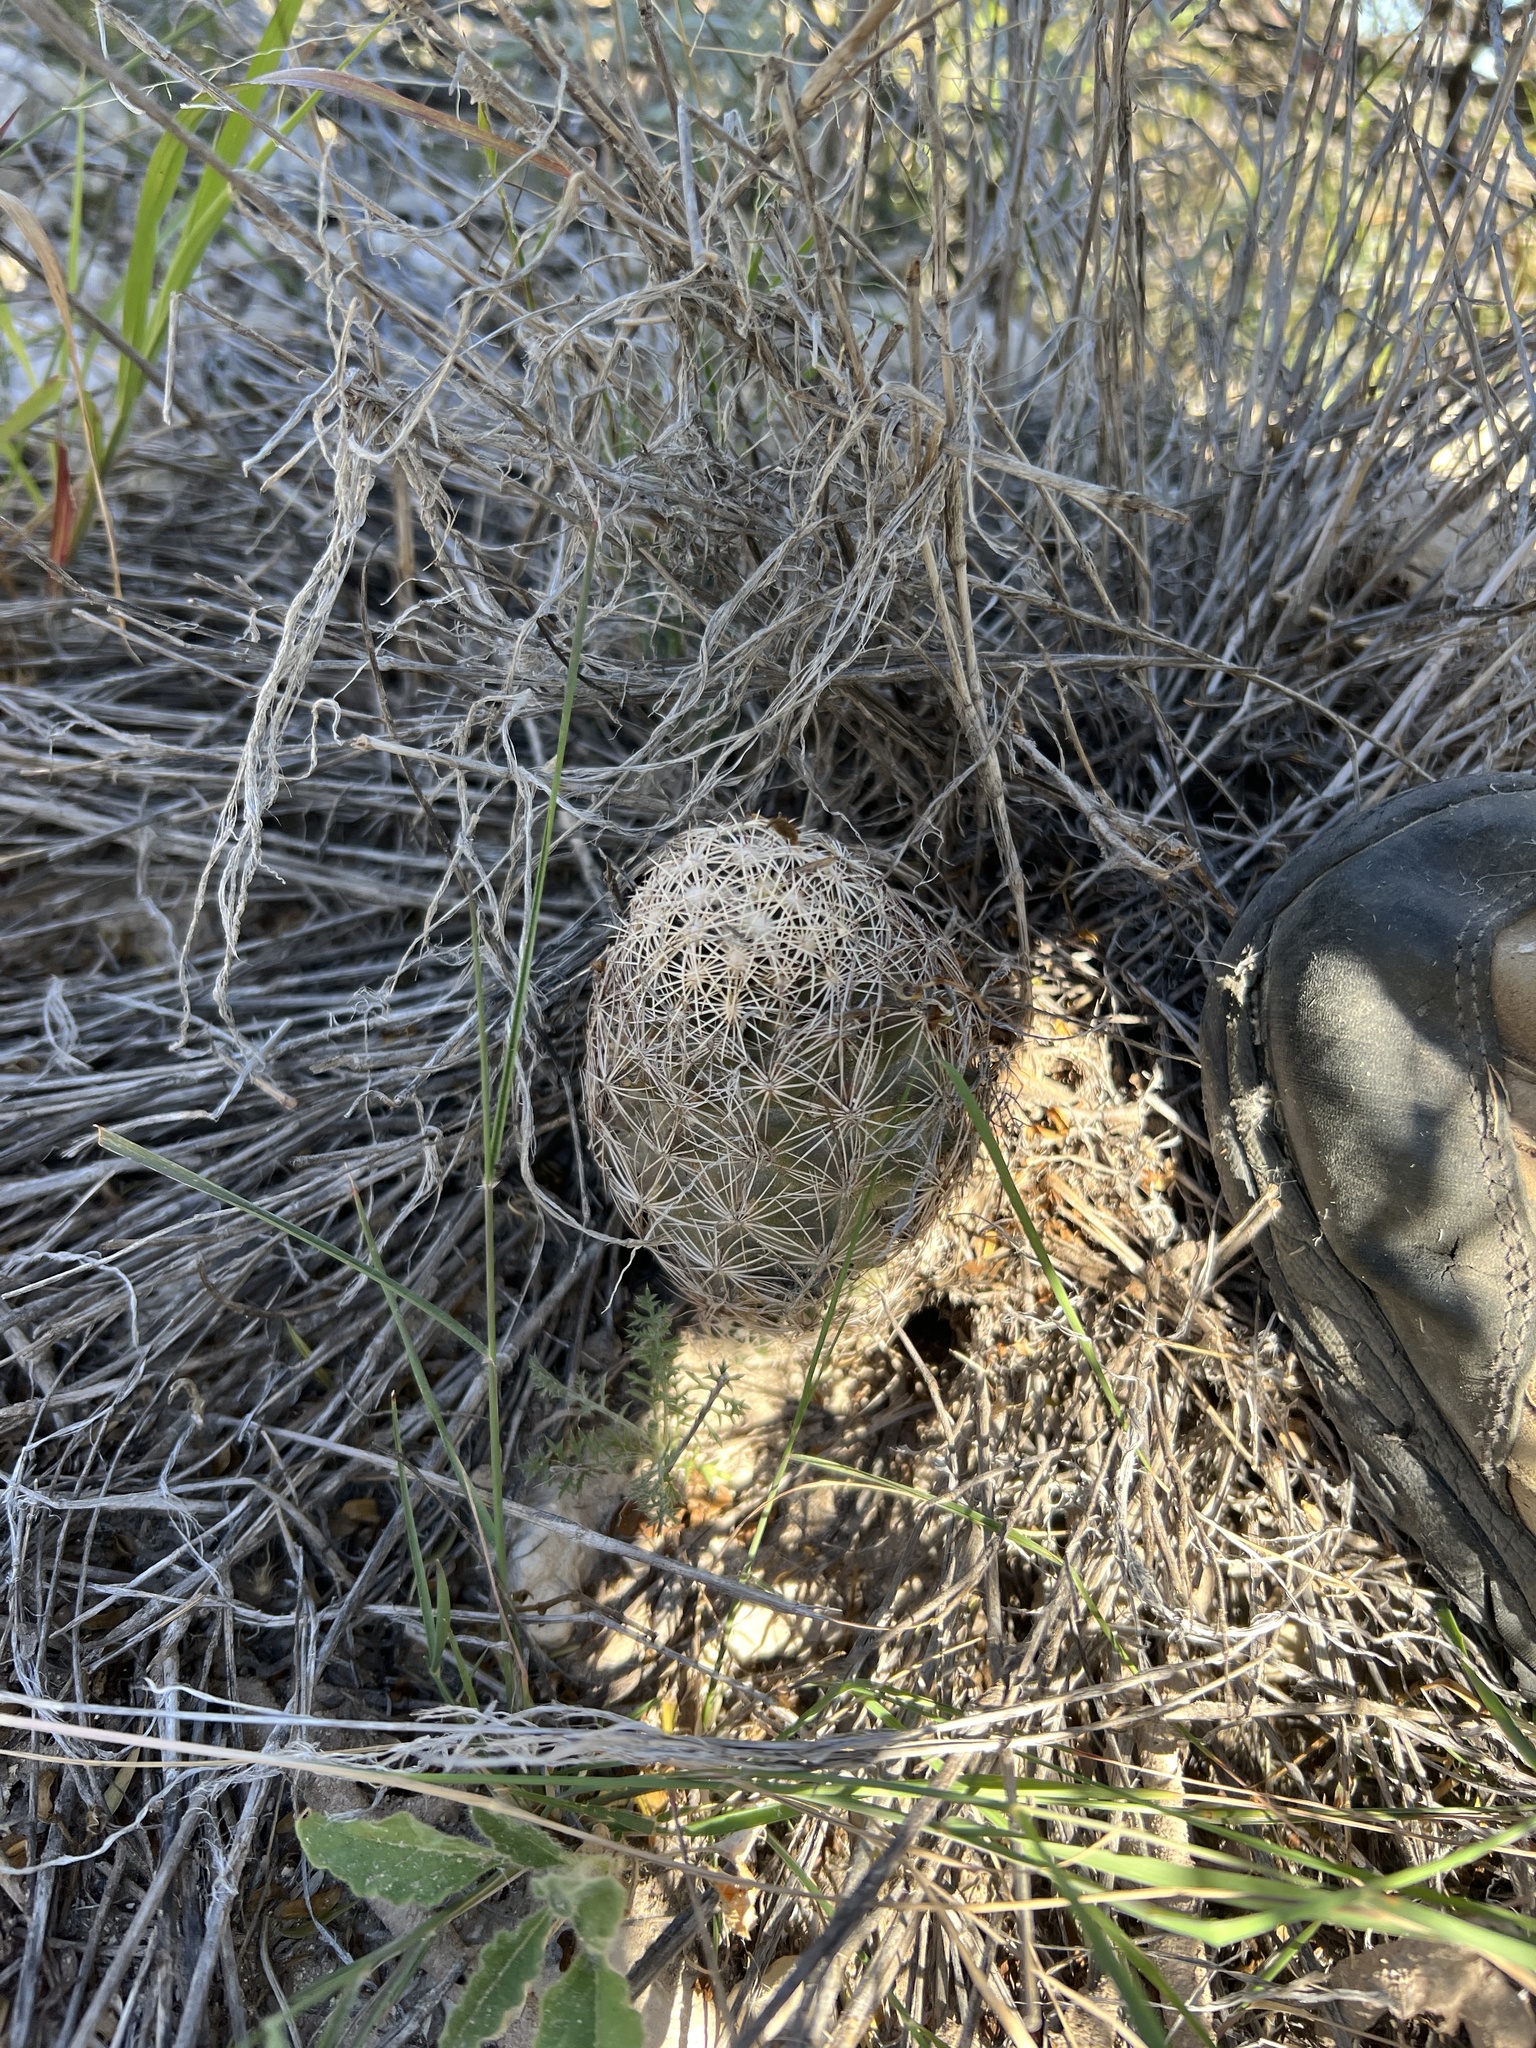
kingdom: Plantae
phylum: Tracheophyta
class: Magnoliopsida
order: Caryophyllales
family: Cactaceae
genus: Coryphantha
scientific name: Coryphantha echinus
